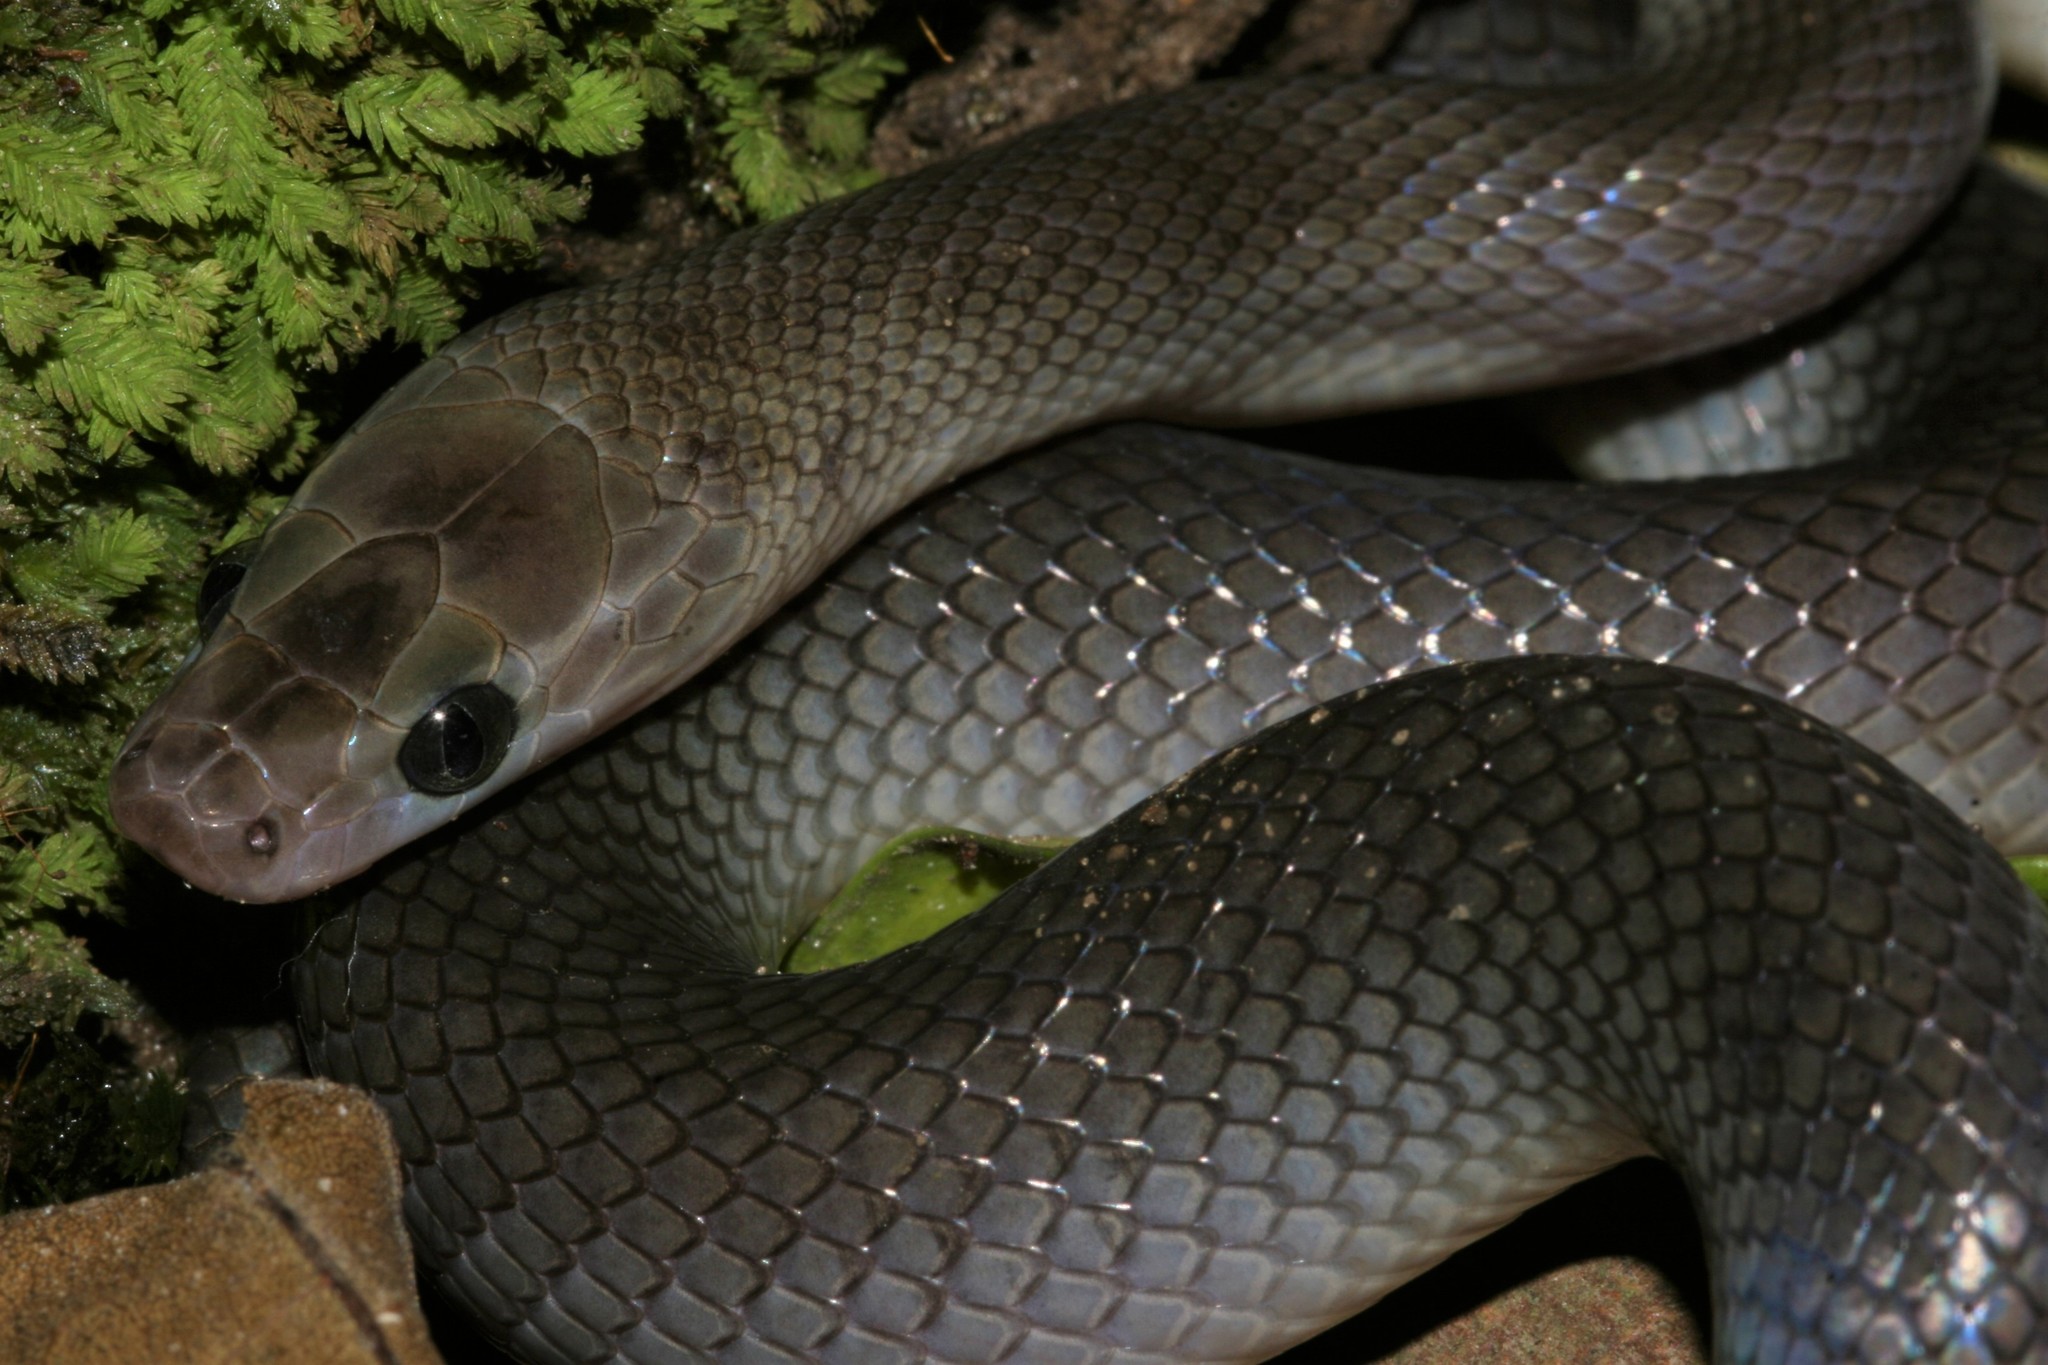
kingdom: Animalia
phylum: Chordata
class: Squamata
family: Lamprophiidae
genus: Boaedon
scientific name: Boaedon perisilvestris
